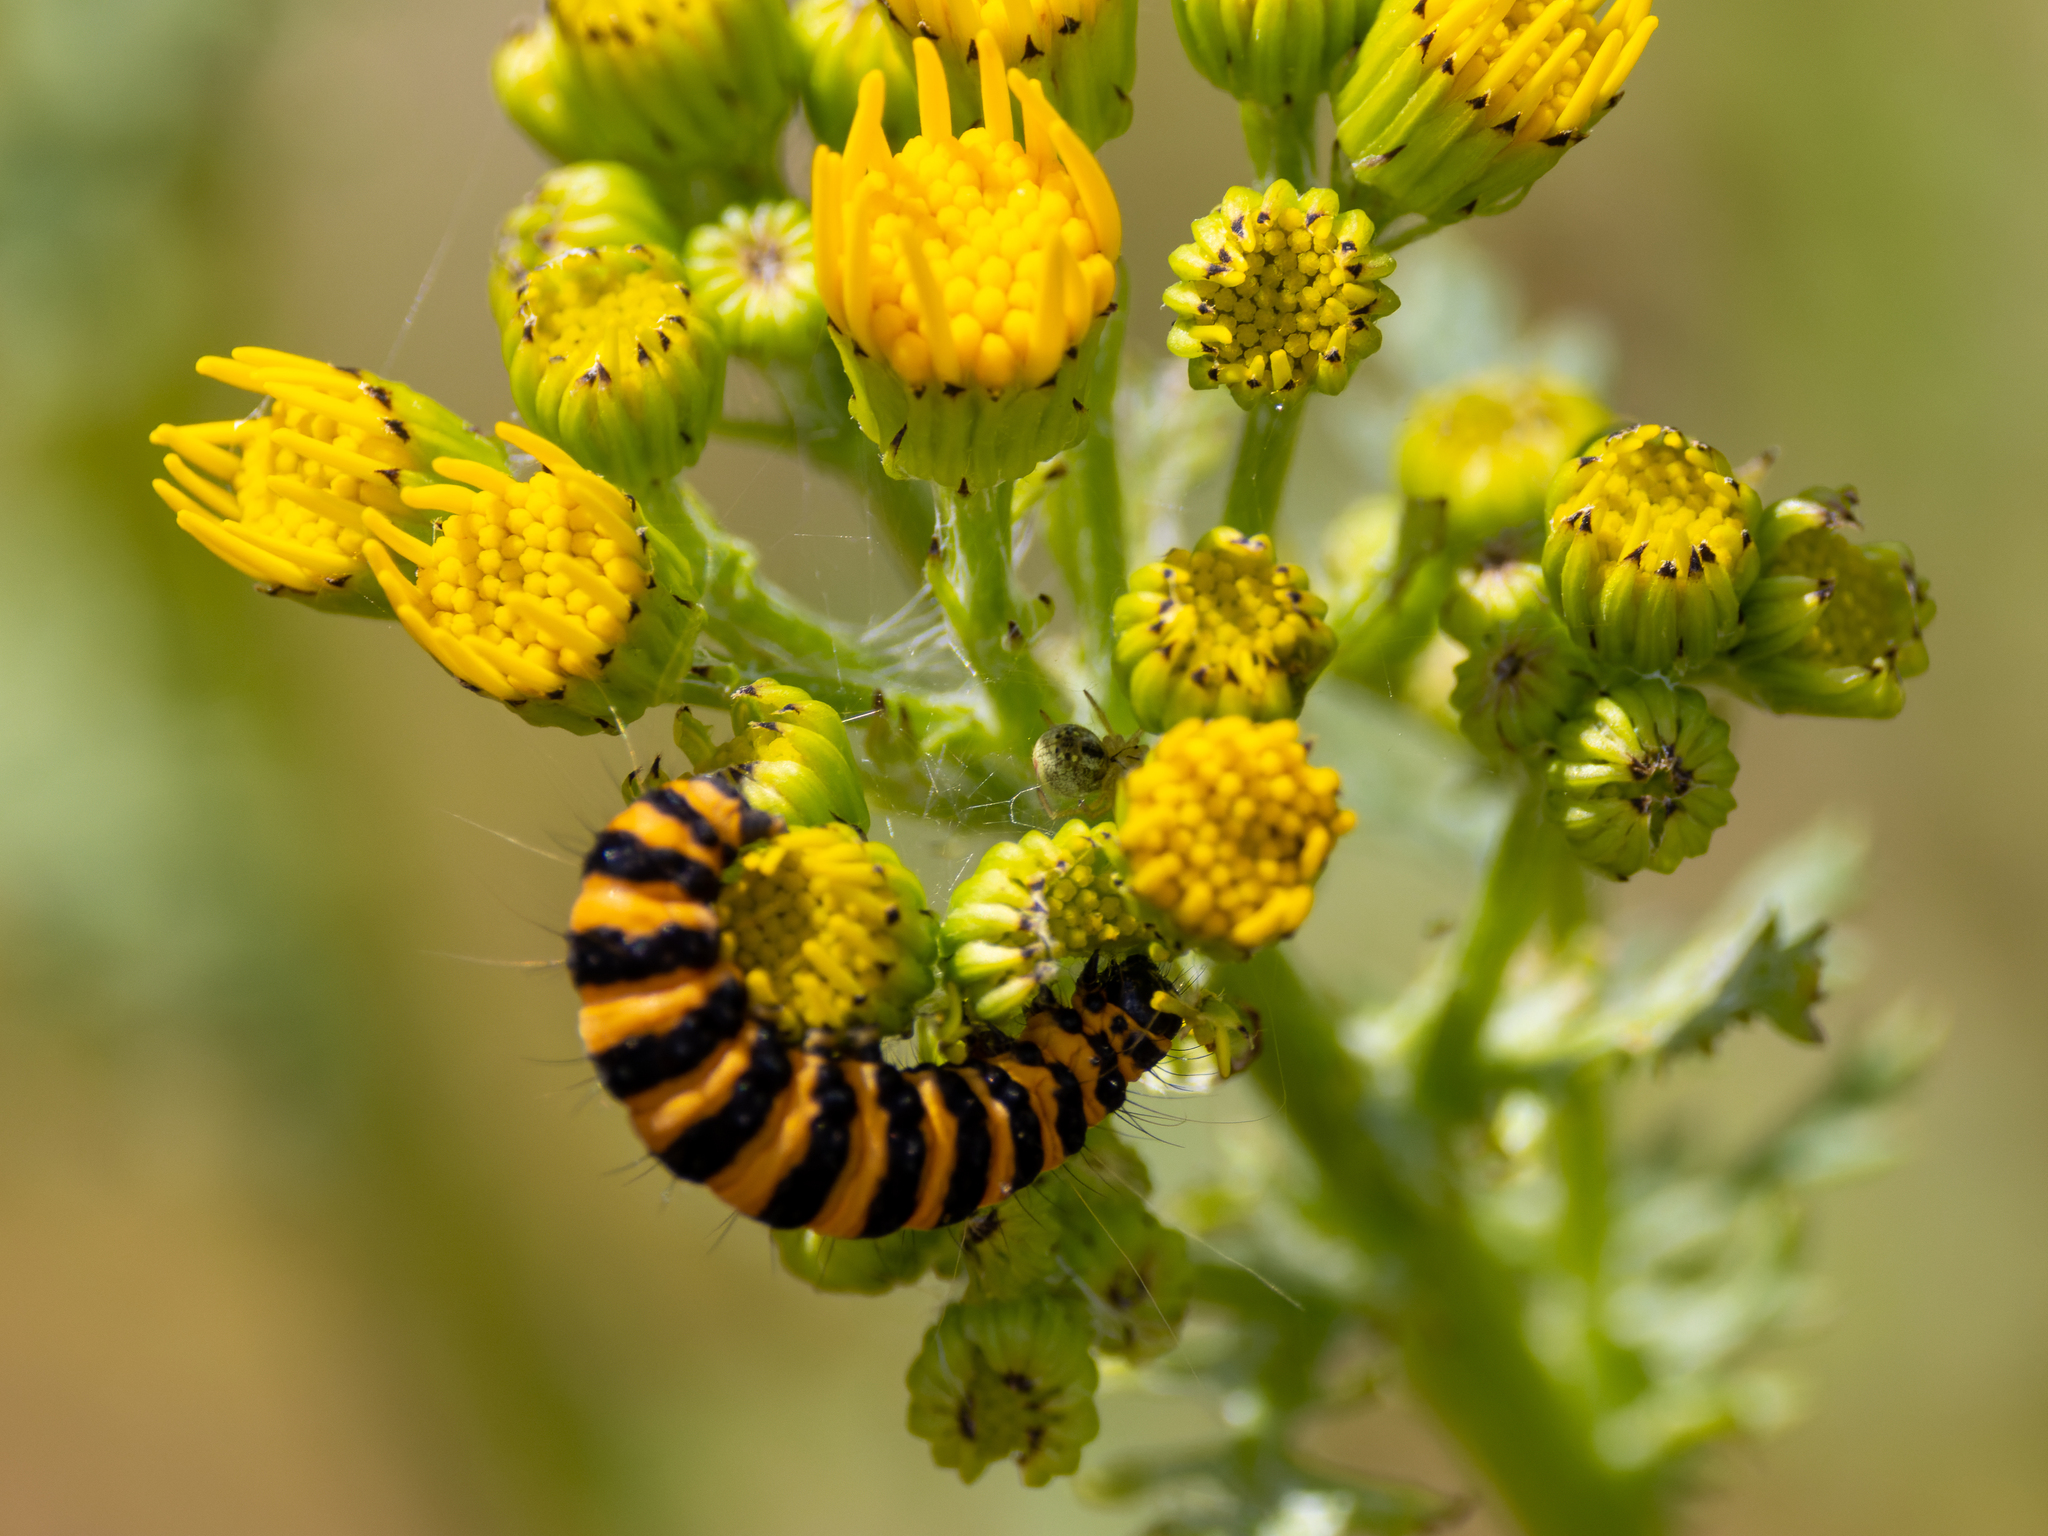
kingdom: Animalia
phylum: Arthropoda
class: Insecta
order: Lepidoptera
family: Erebidae
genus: Tyria
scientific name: Tyria jacobaeae
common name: Cinnabar
